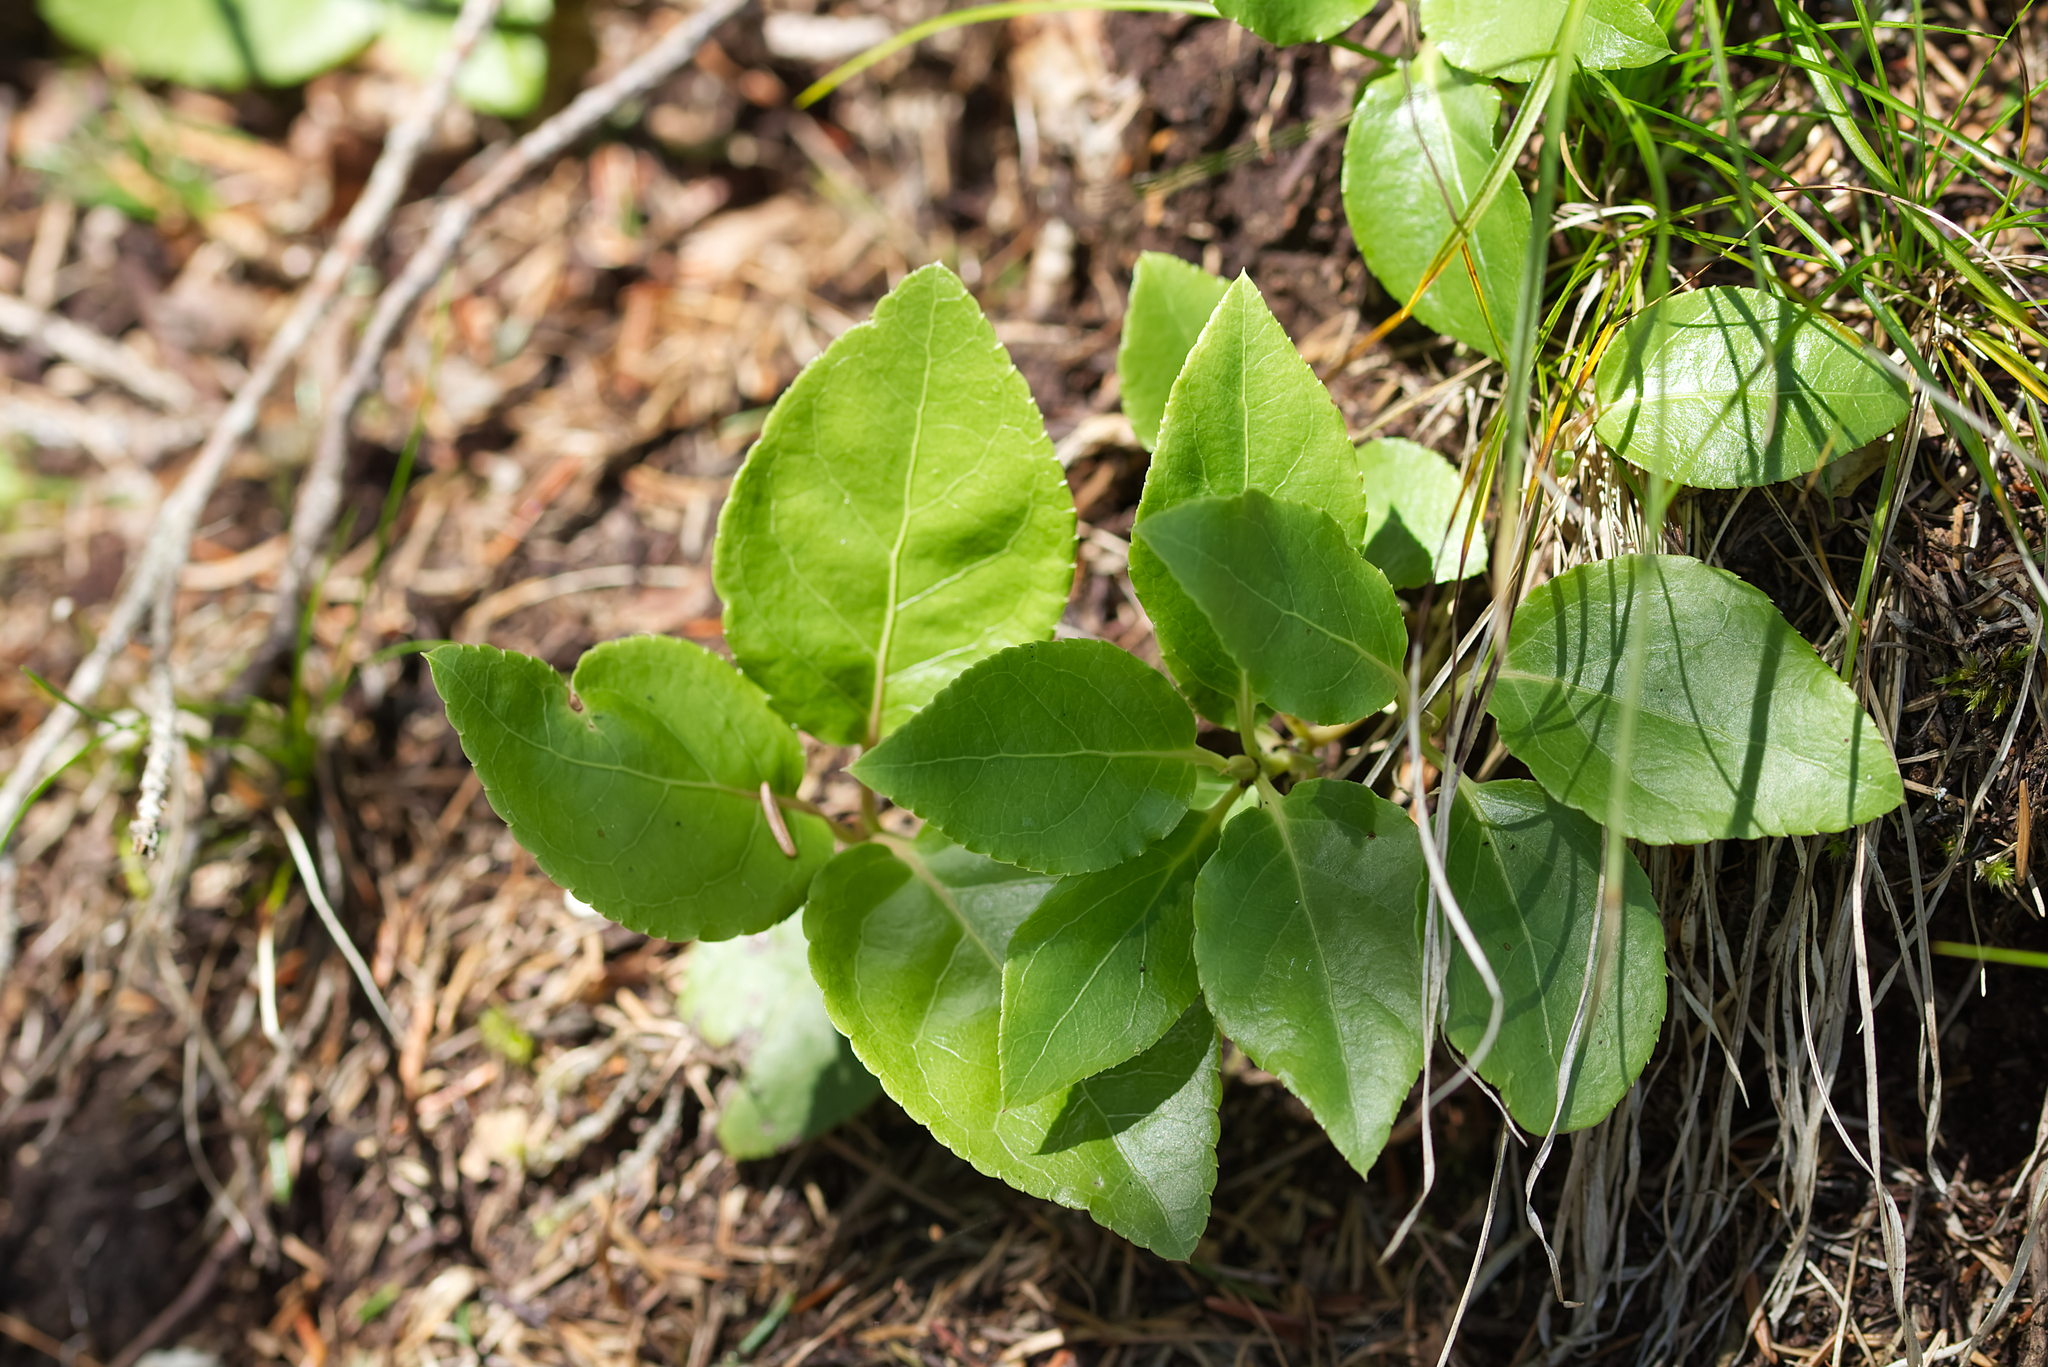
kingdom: Plantae
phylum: Tracheophyta
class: Magnoliopsida
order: Ericales
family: Ericaceae
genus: Orthilia
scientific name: Orthilia secunda
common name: One-sided orthilia
